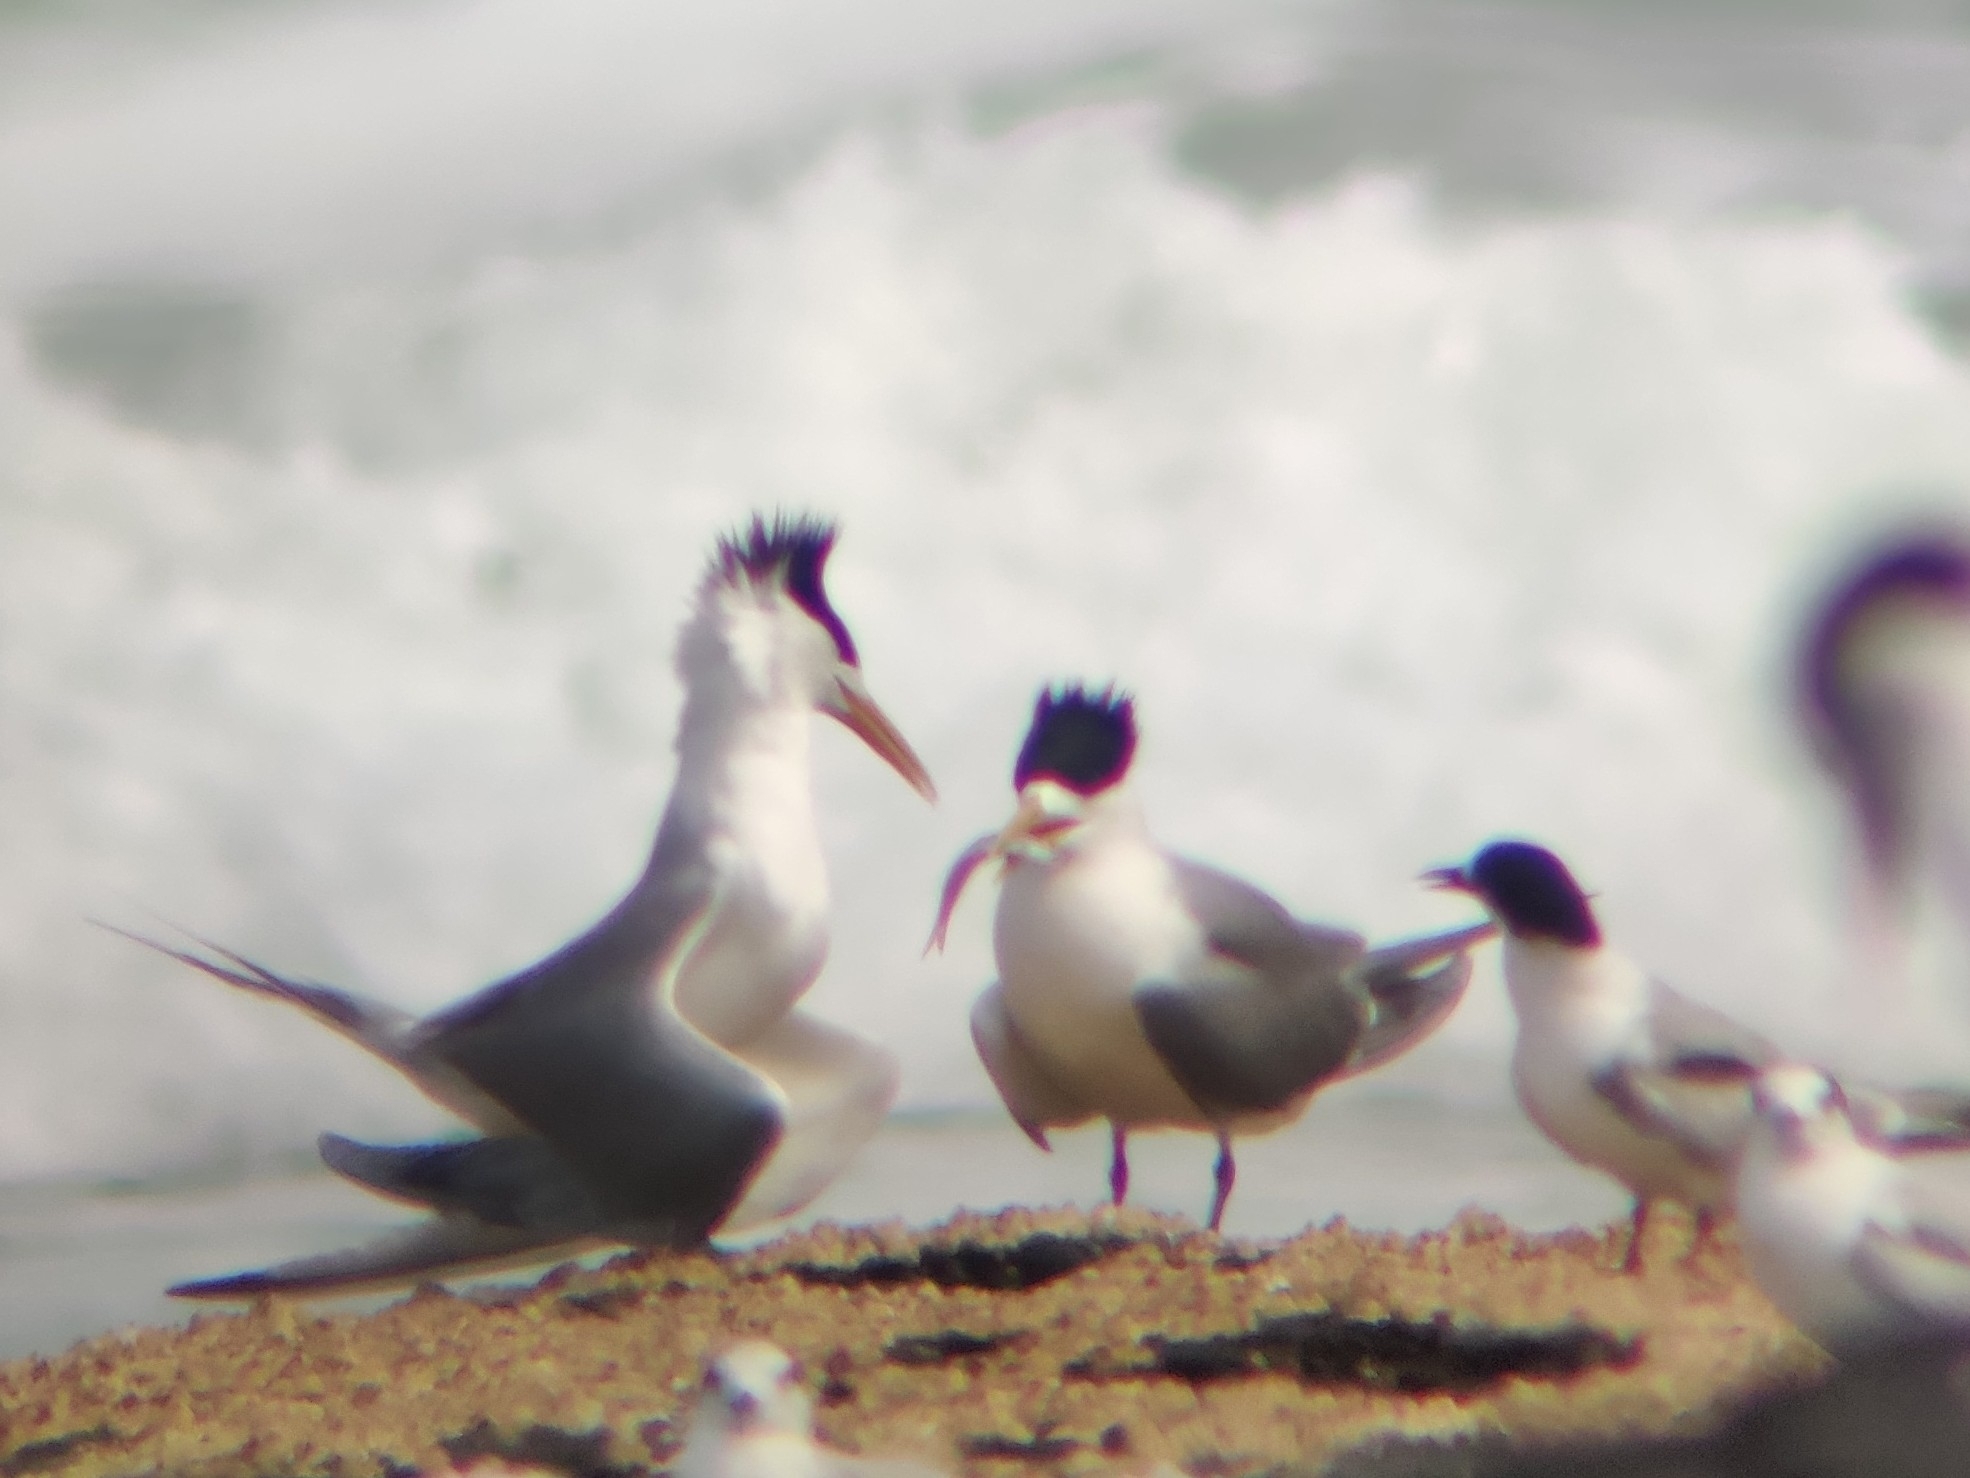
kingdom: Animalia
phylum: Chordata
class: Aves
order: Charadriiformes
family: Laridae
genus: Thalasseus
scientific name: Thalasseus bergii
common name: Greater crested tern
